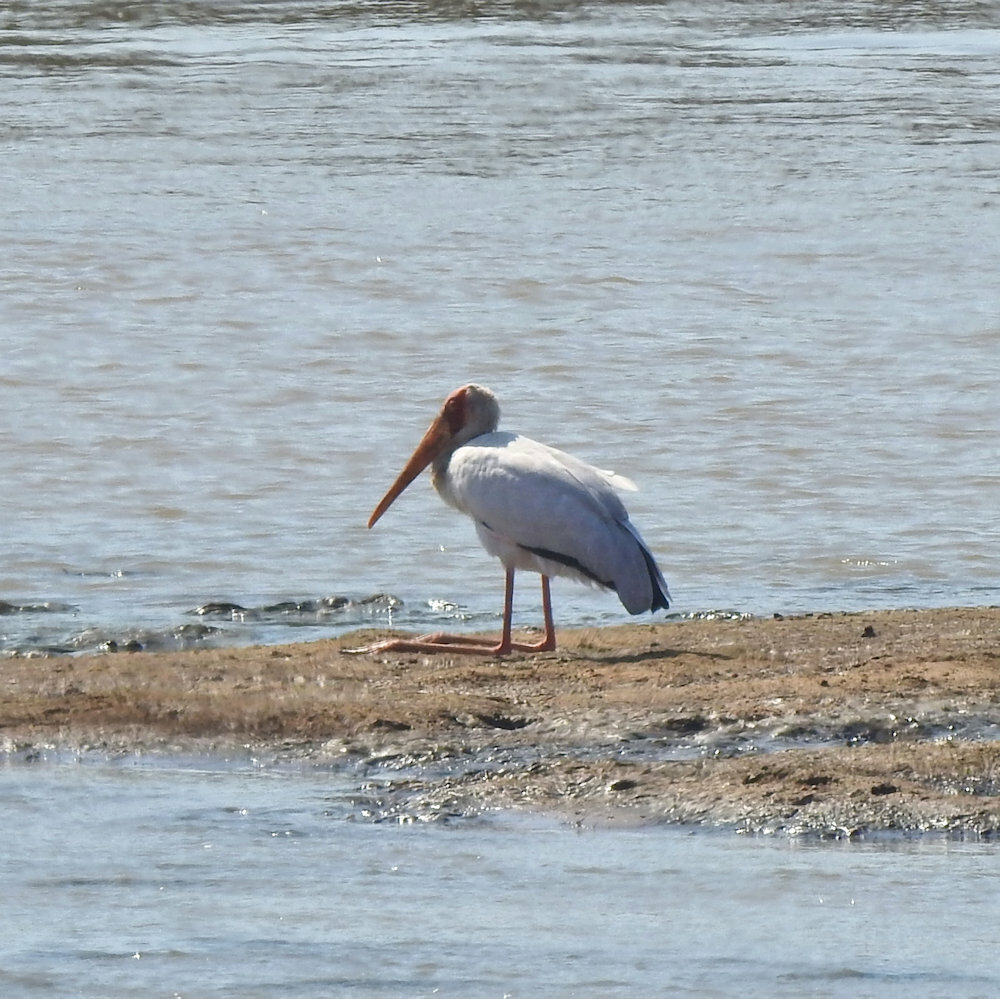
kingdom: Animalia
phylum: Chordata
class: Aves
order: Ciconiiformes
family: Ciconiidae
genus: Mycteria
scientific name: Mycteria ibis
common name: Yellow-billed stork
